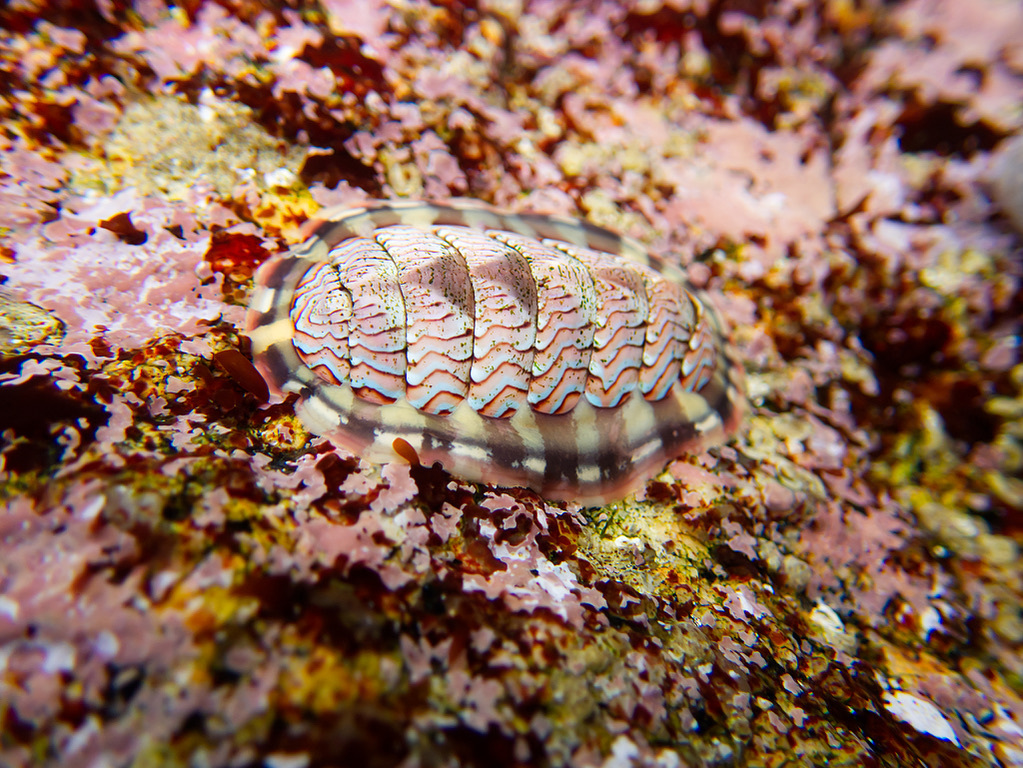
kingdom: Animalia
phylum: Mollusca
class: Polyplacophora
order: Chitonida
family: Tonicellidae
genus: Tonicella
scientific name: Tonicella lokii
